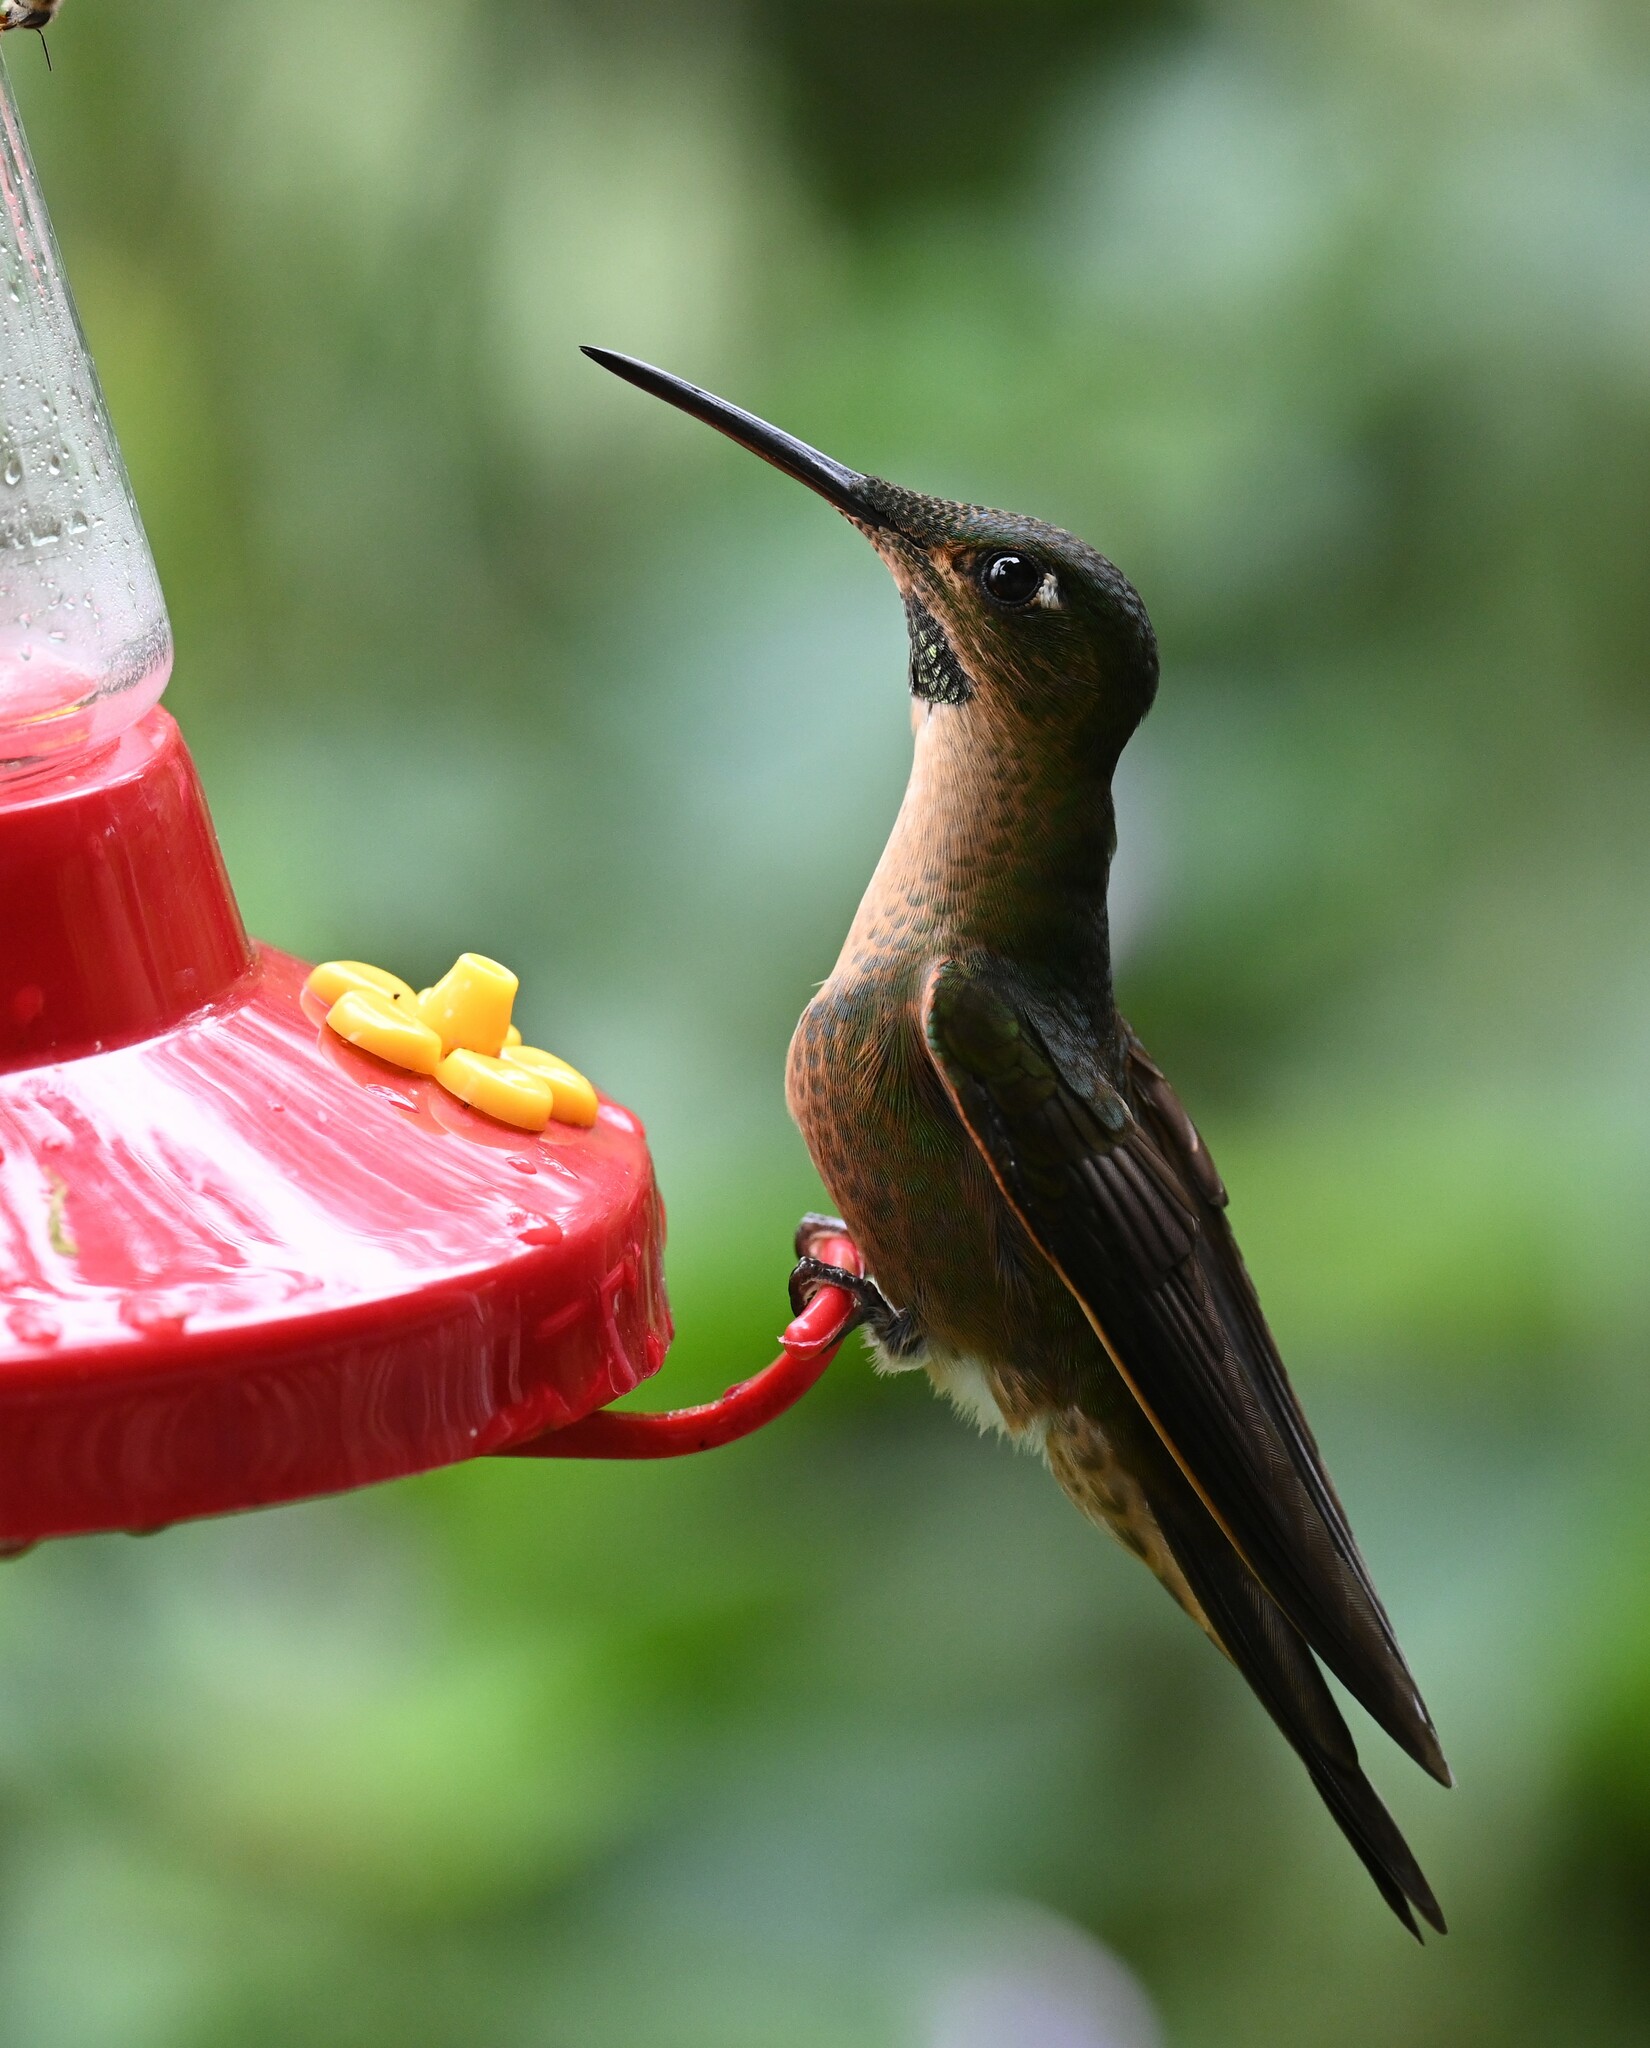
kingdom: Animalia
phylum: Chordata
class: Aves
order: Apodiformes
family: Trochilidae
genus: Heliodoxa
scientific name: Heliodoxa rubinoides
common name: Fawn-breasted brilliant
